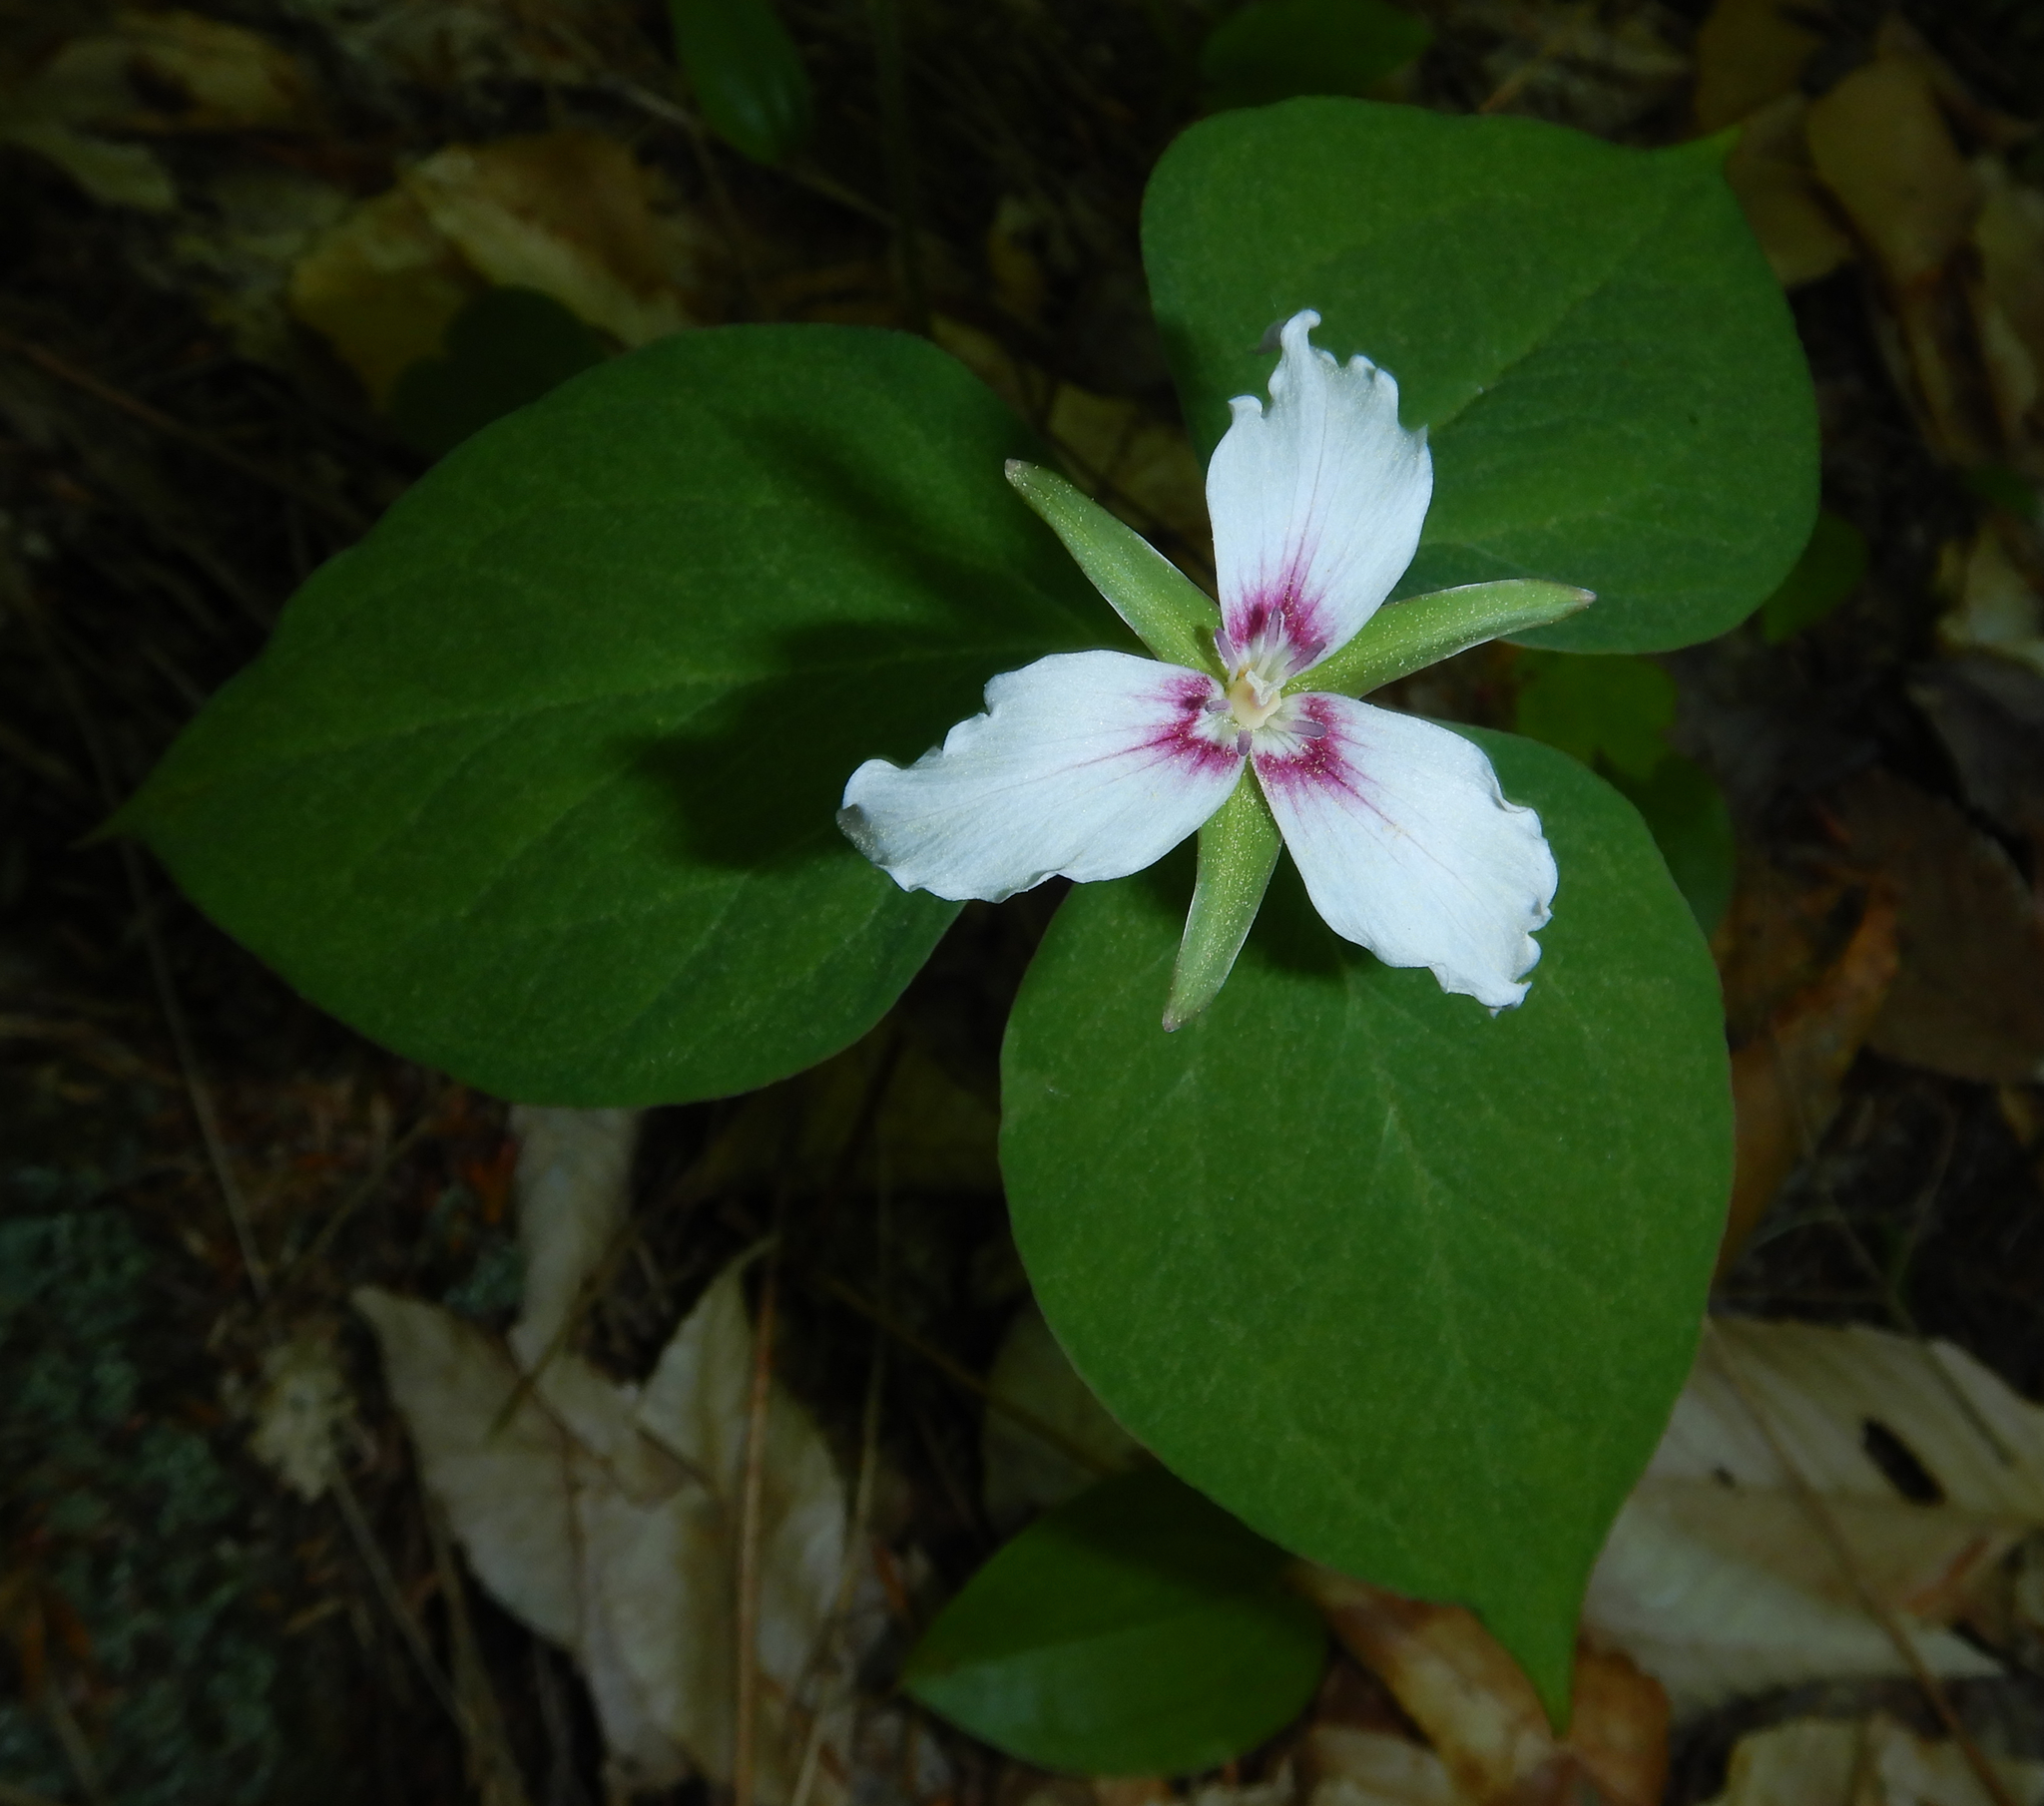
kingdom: Plantae
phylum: Tracheophyta
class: Liliopsida
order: Liliales
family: Melanthiaceae
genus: Trillium
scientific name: Trillium undulatum
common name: Paint trillium
